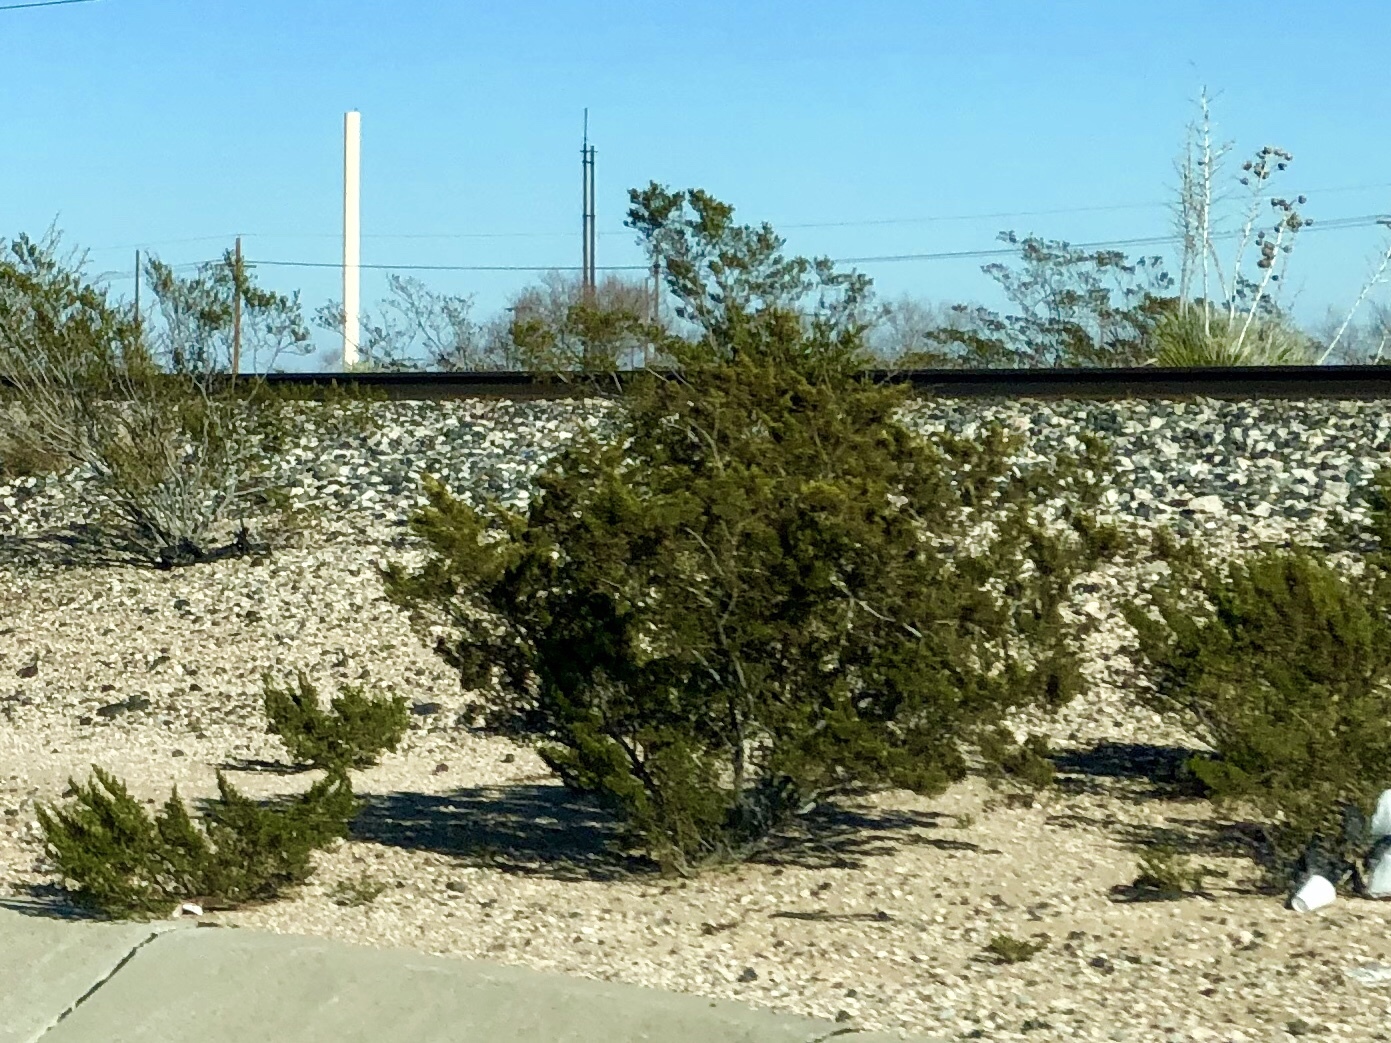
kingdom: Plantae
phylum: Tracheophyta
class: Magnoliopsida
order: Zygophyllales
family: Zygophyllaceae
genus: Larrea
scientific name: Larrea tridentata
